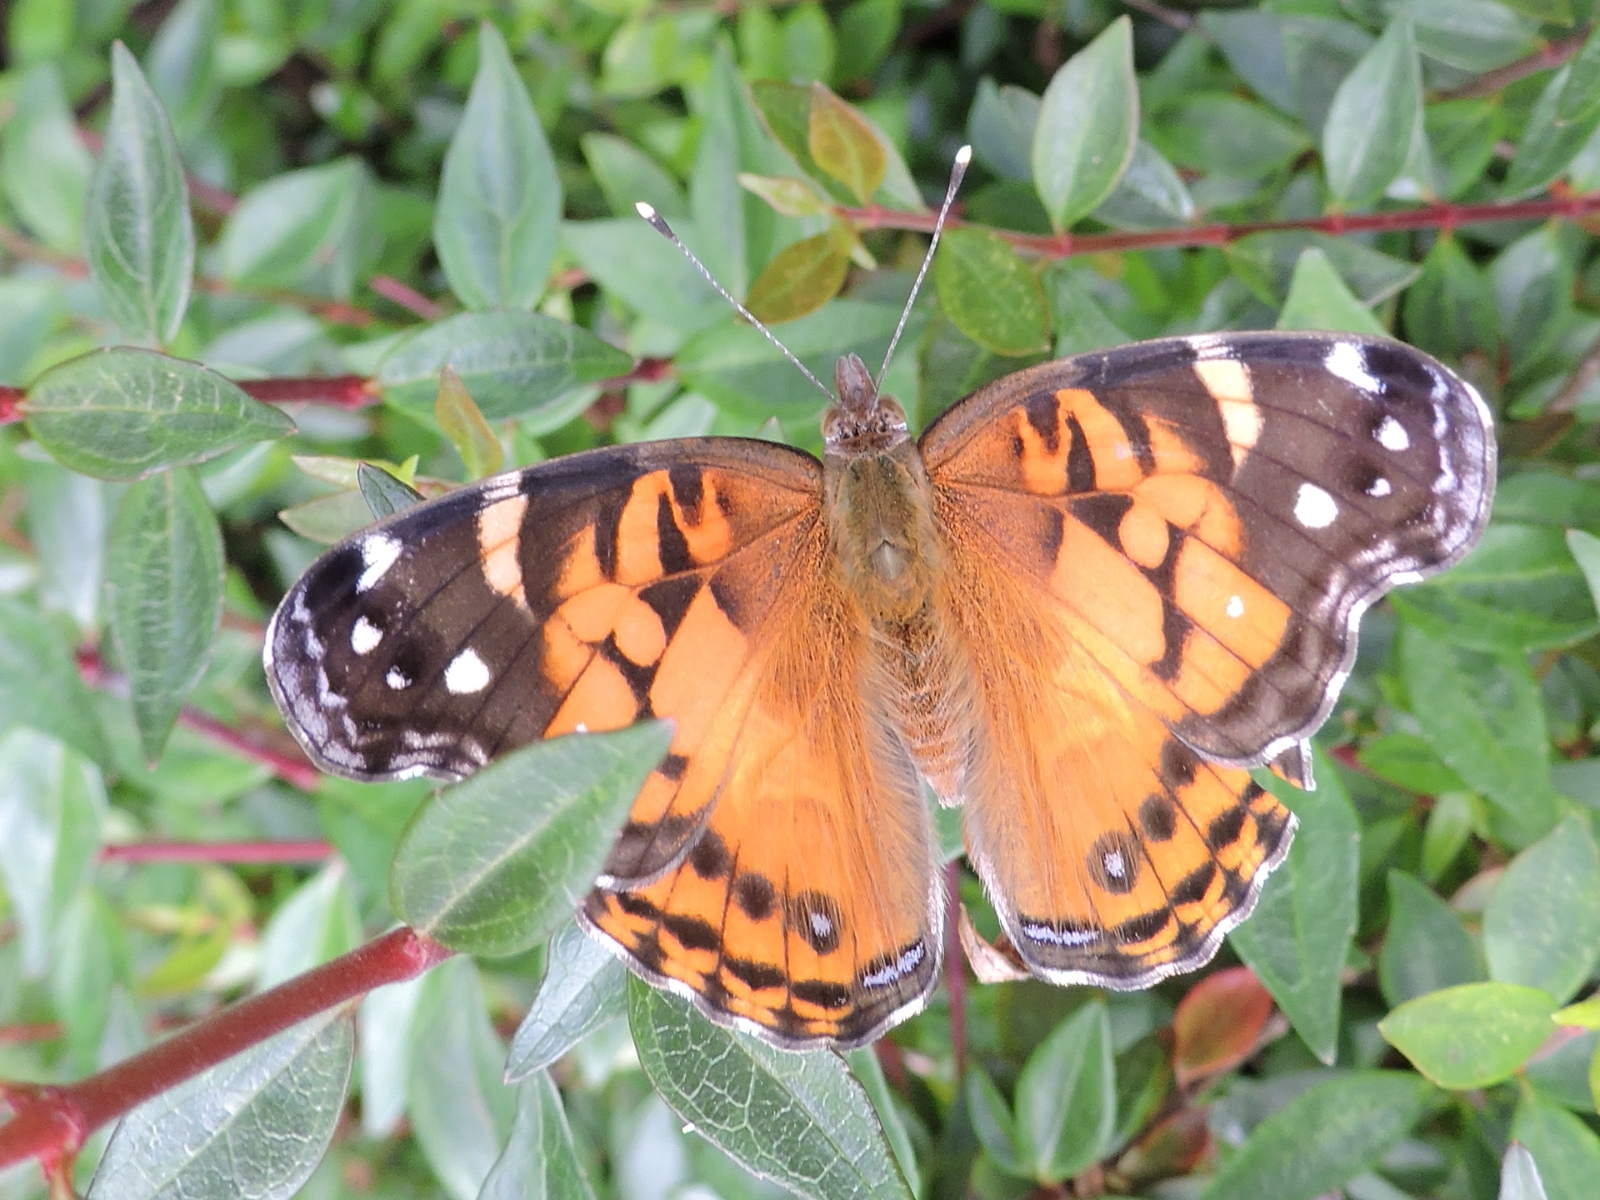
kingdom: Animalia
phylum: Arthropoda
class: Insecta
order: Lepidoptera
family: Nymphalidae
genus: Vanessa
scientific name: Vanessa virginiensis
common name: American lady
